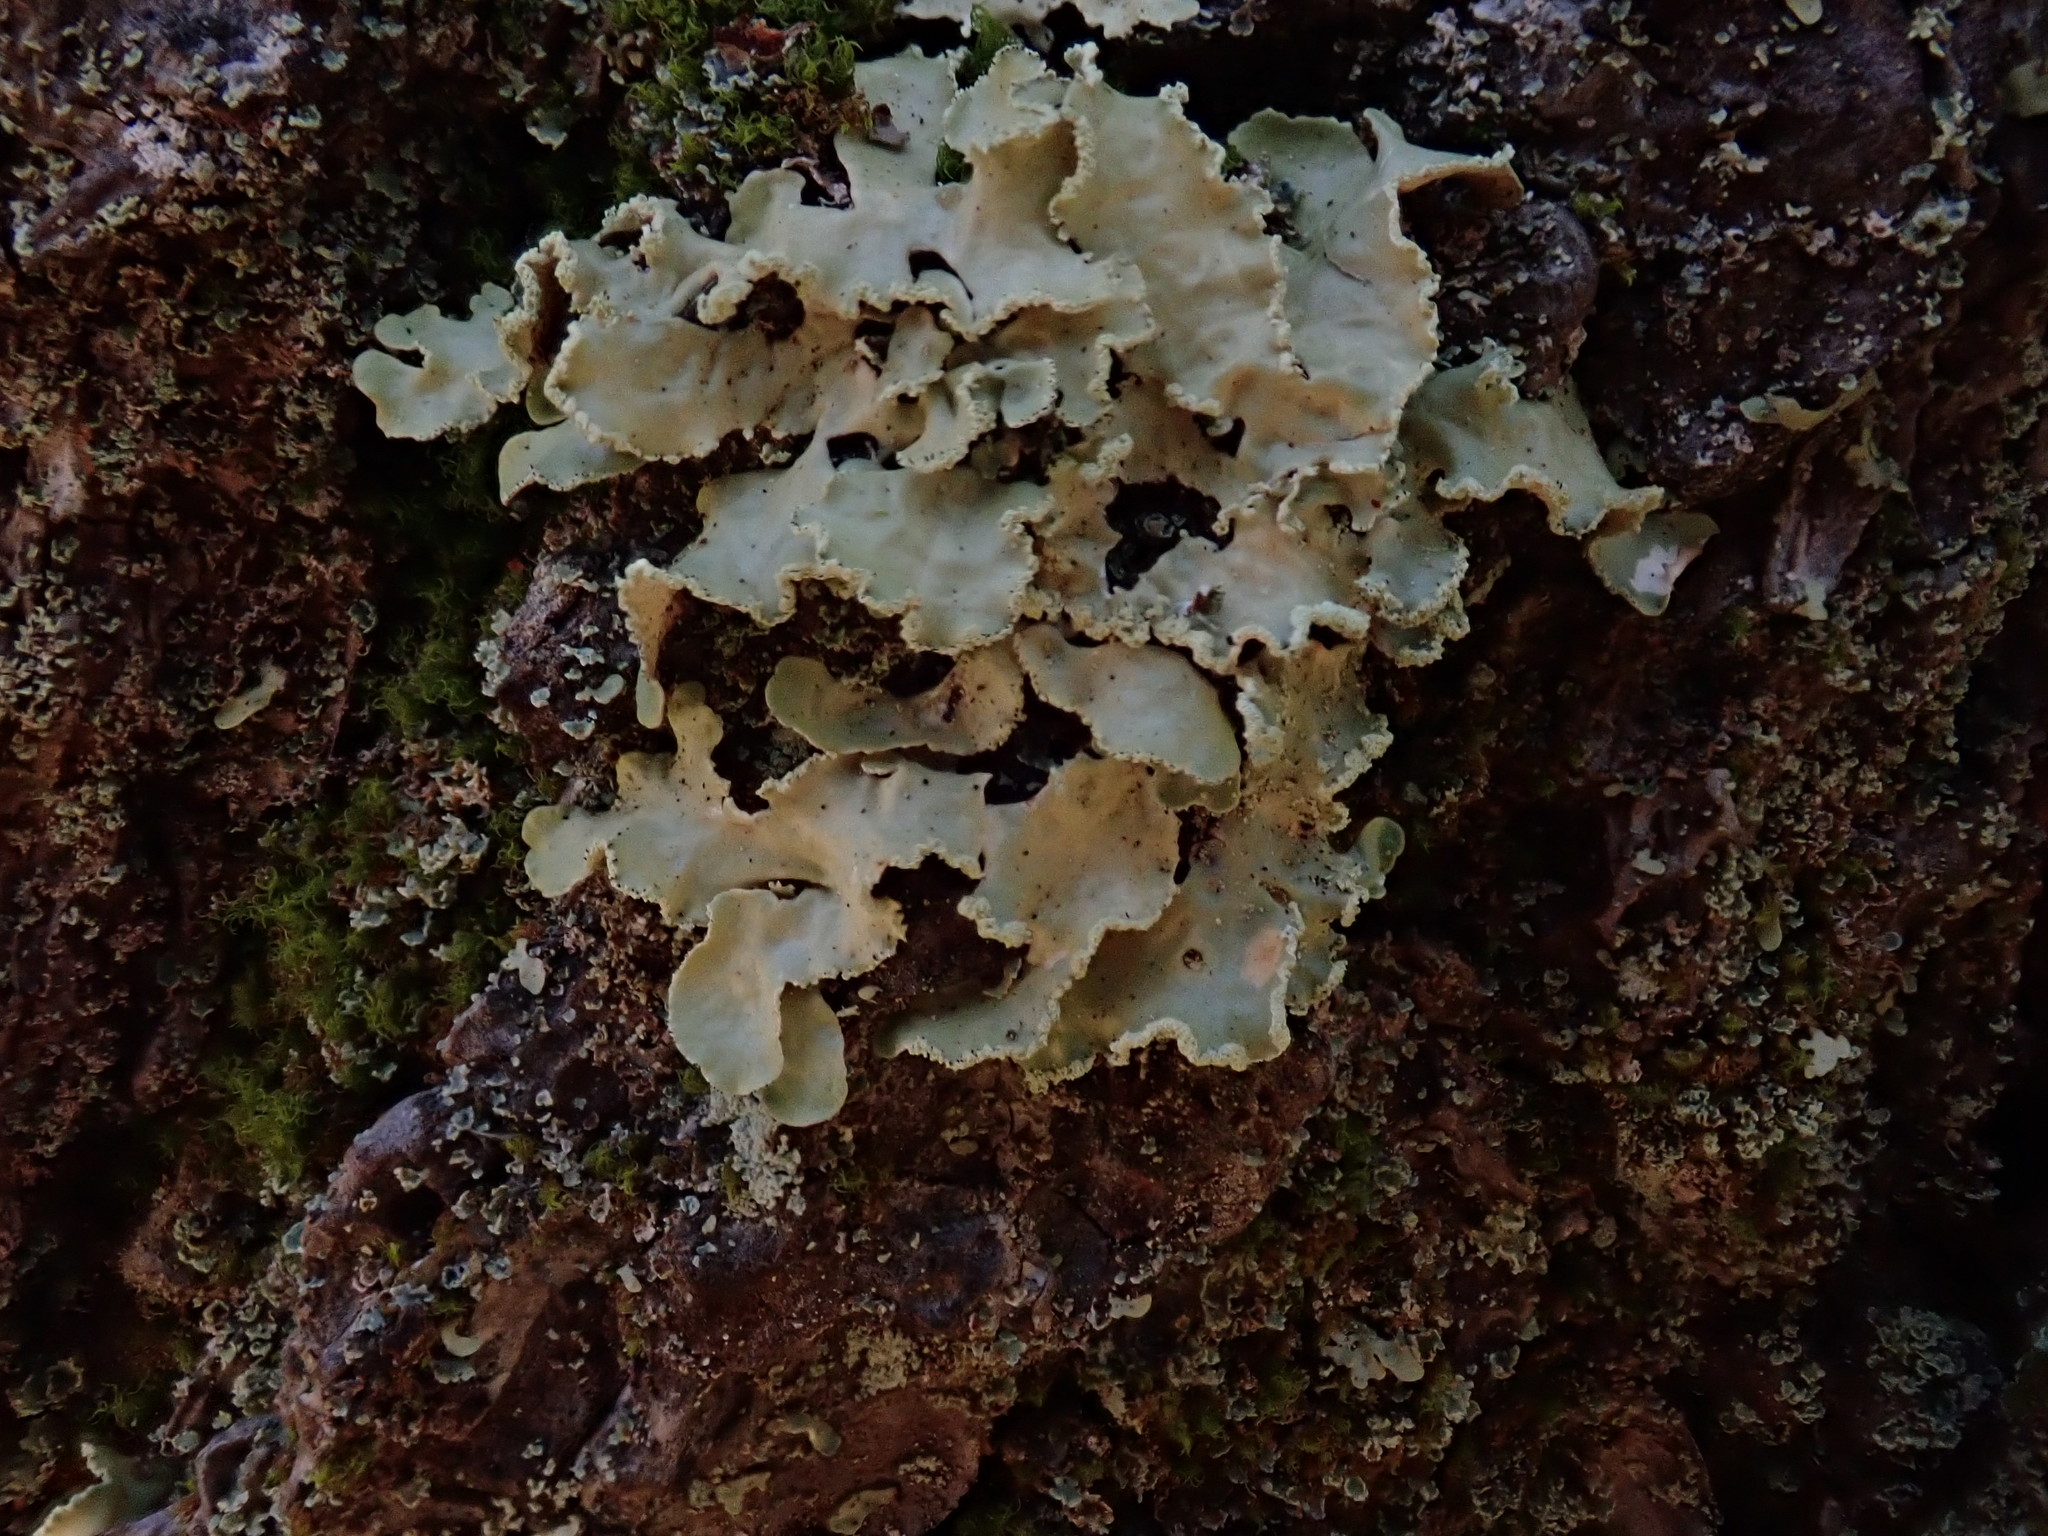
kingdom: Fungi
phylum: Ascomycota
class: Lecanoromycetes
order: Lecanorales
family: Parmeliaceae
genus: Usnocetraria
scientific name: Usnocetraria oakesiana
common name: Yellow ribbon lichen
